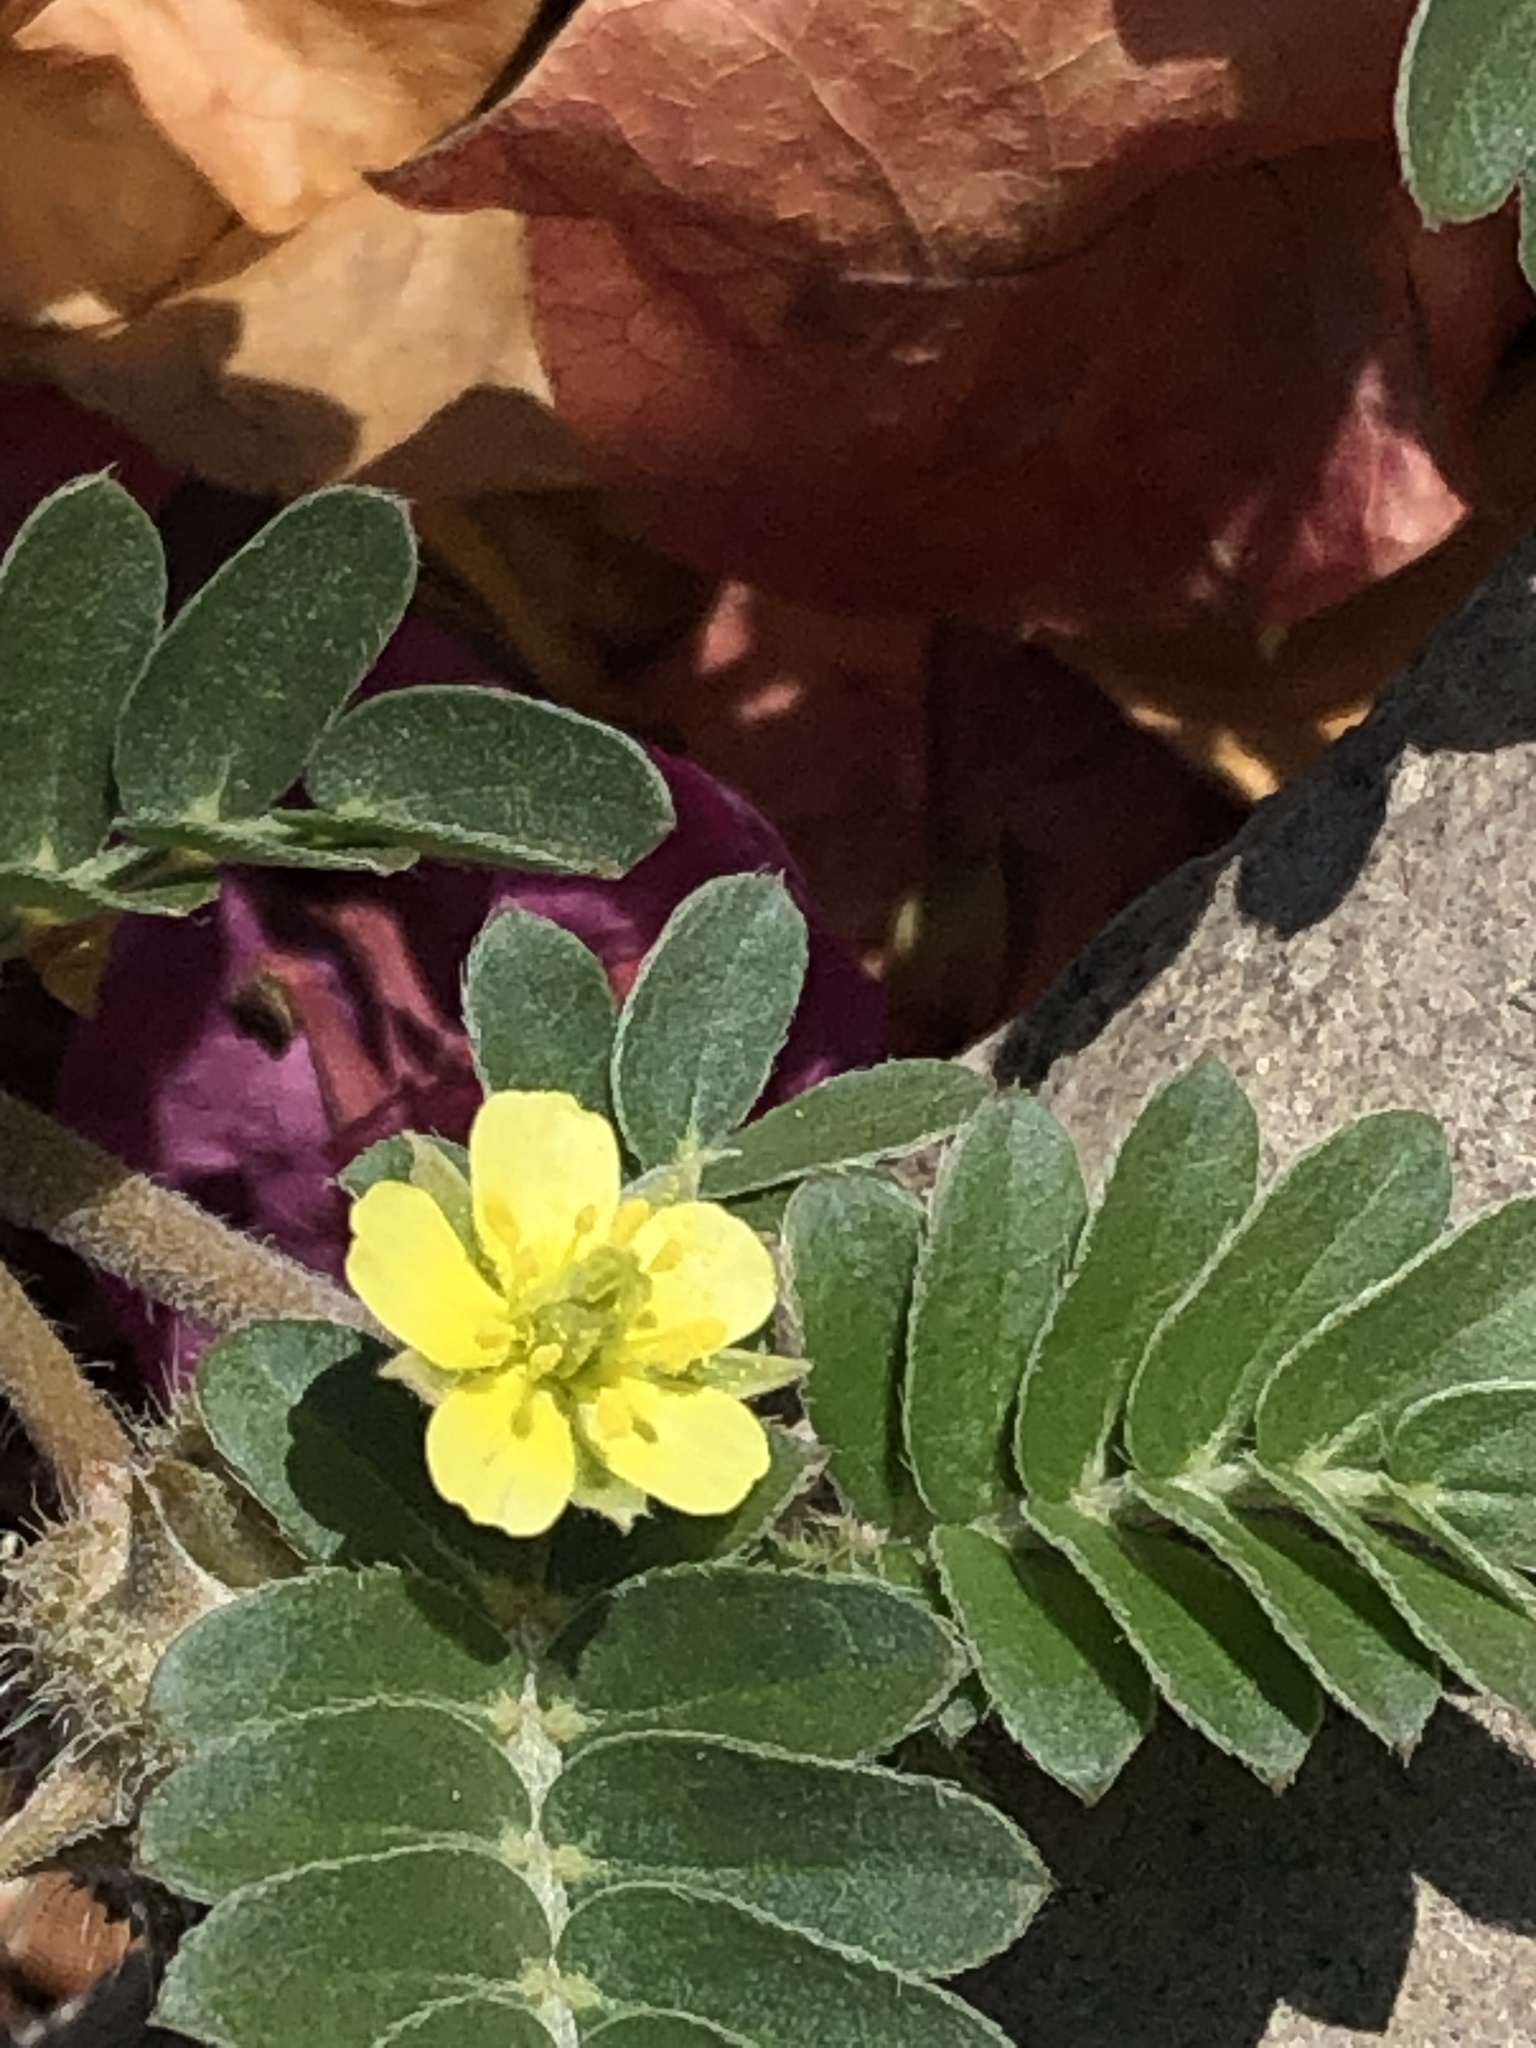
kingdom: Plantae
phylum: Tracheophyta
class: Magnoliopsida
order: Zygophyllales
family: Zygophyllaceae
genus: Tribulus
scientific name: Tribulus terrestris
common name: Puncturevine
